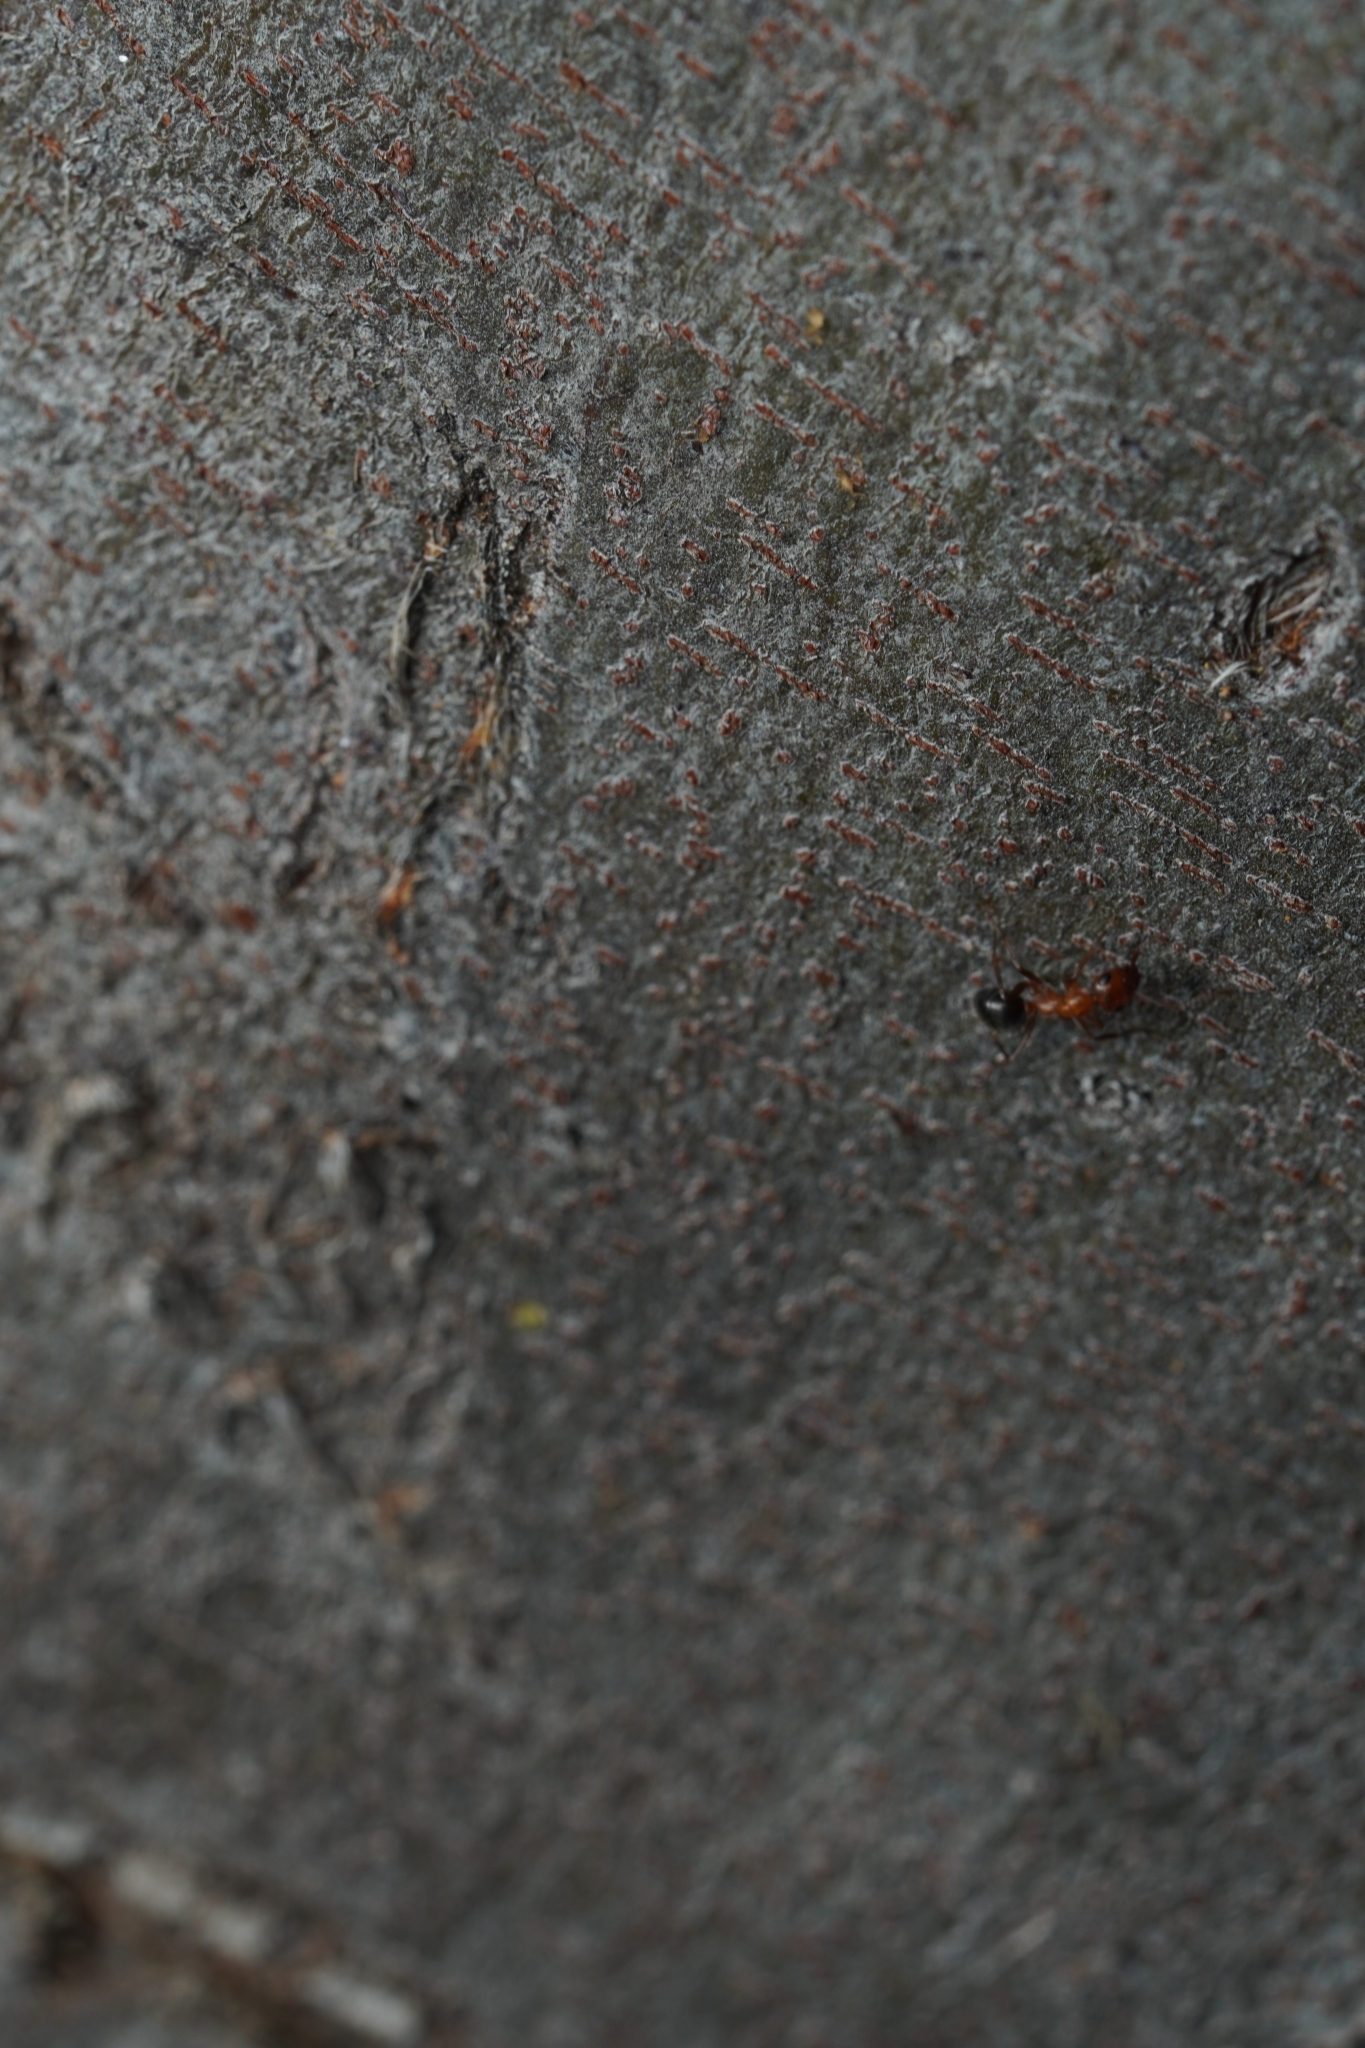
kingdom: Animalia
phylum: Arthropoda
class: Insecta
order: Hymenoptera
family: Formicidae
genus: Formica
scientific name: Formica perpilosa
